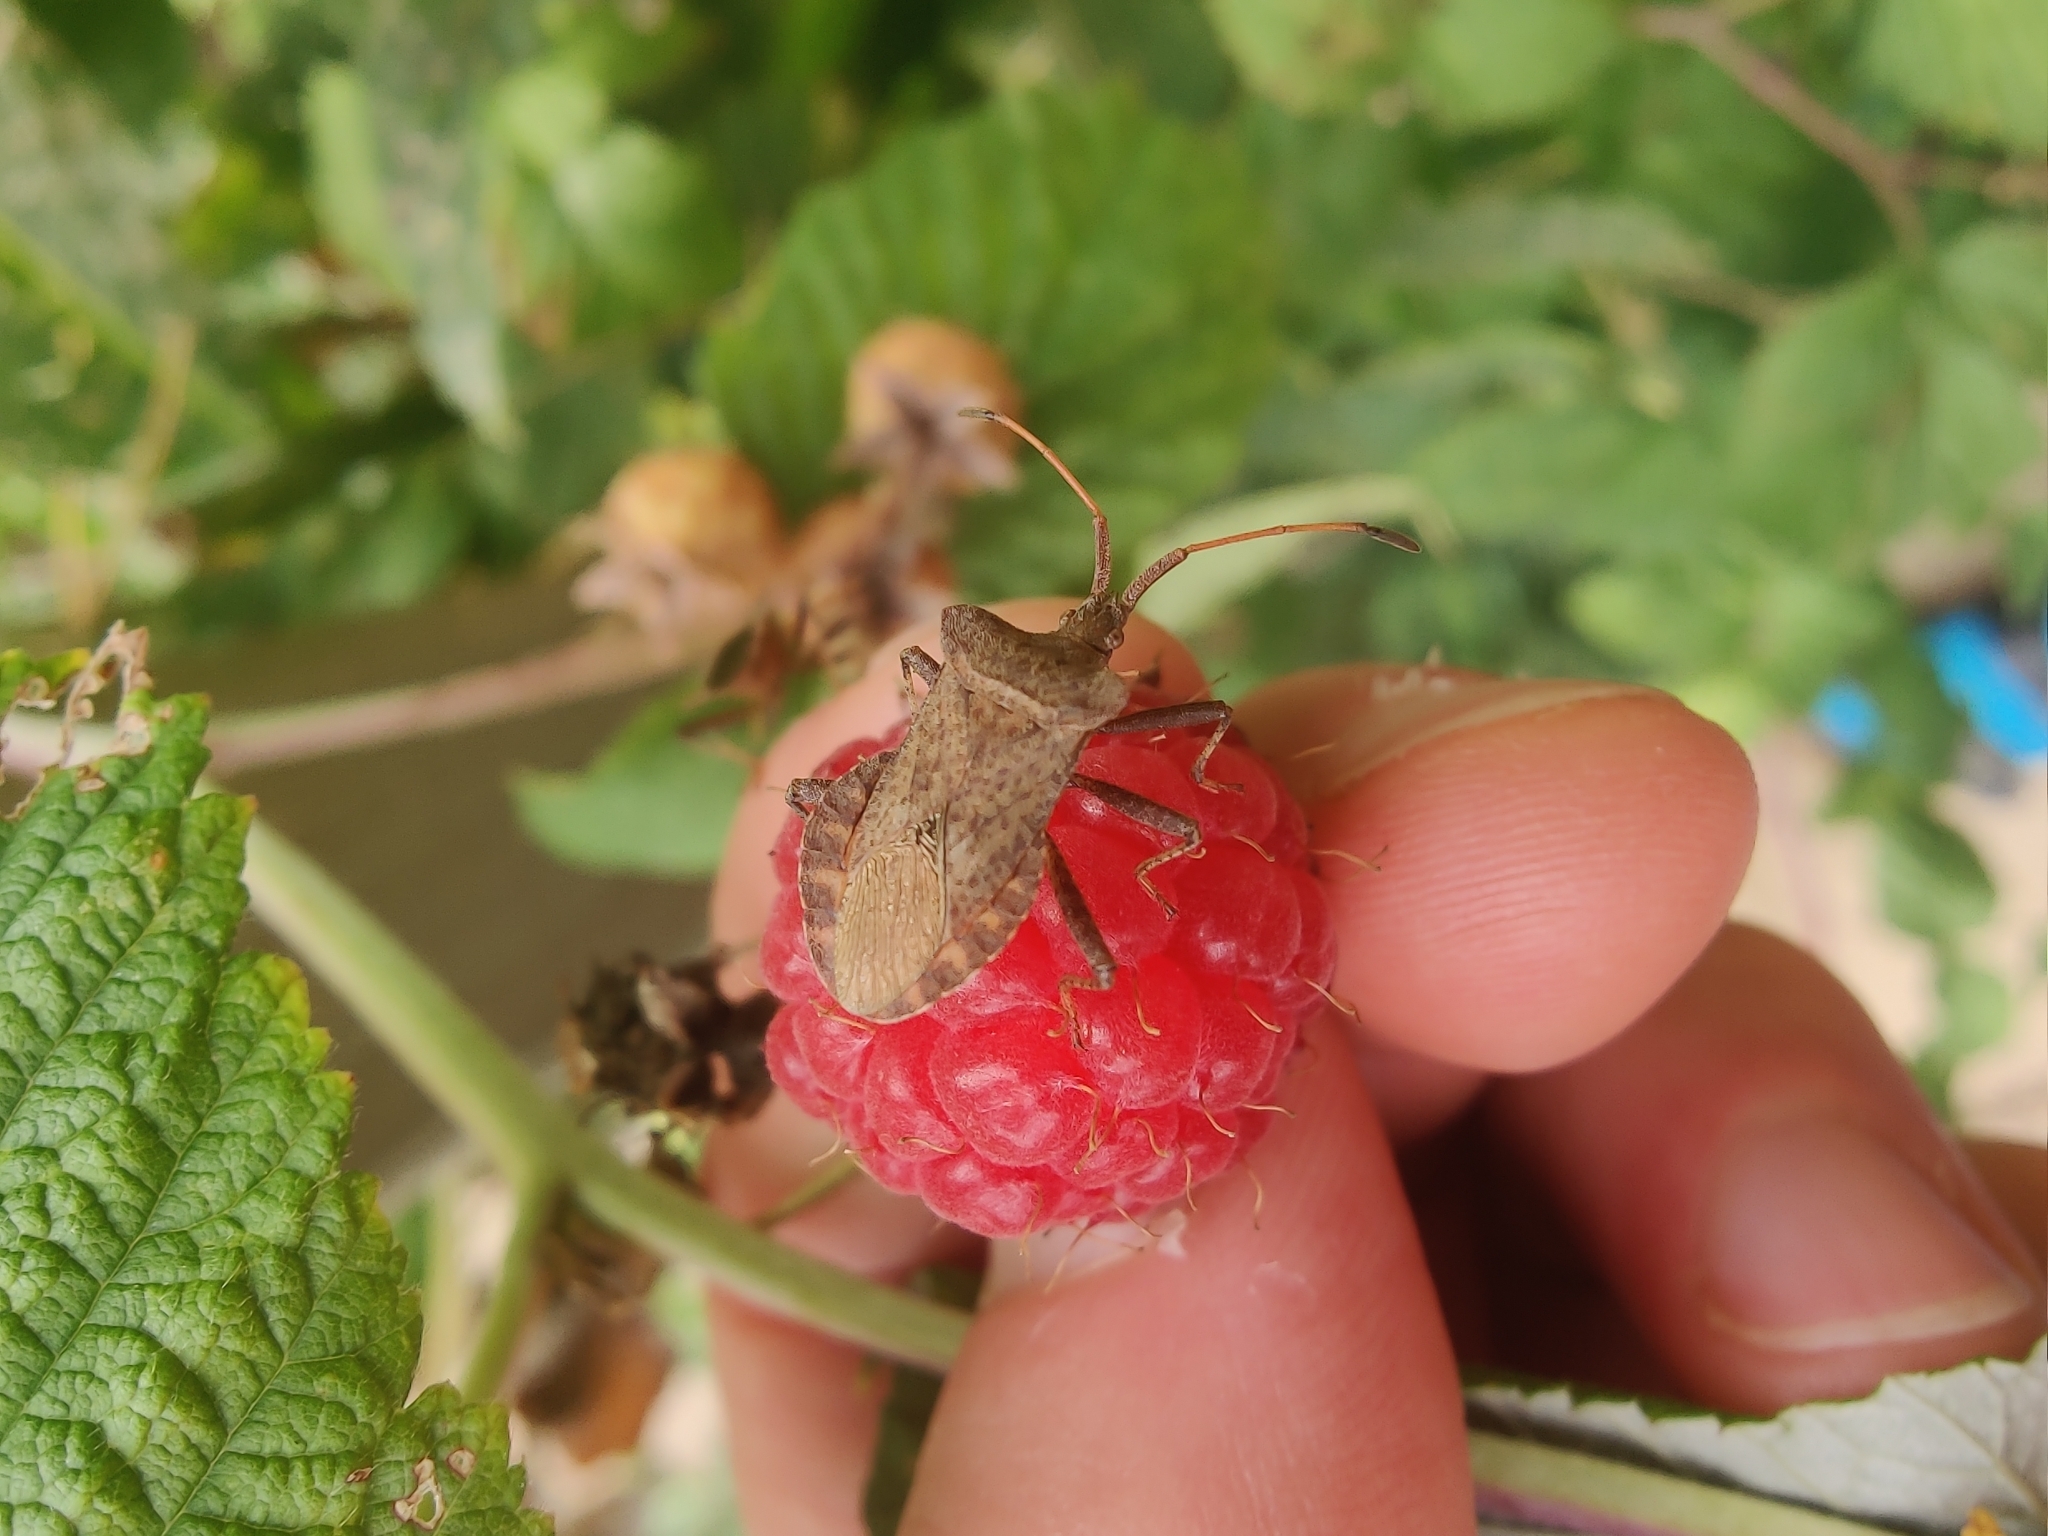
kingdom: Animalia
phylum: Arthropoda
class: Insecta
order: Hemiptera
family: Coreidae
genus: Coreus
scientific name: Coreus marginatus
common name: Dock bug
